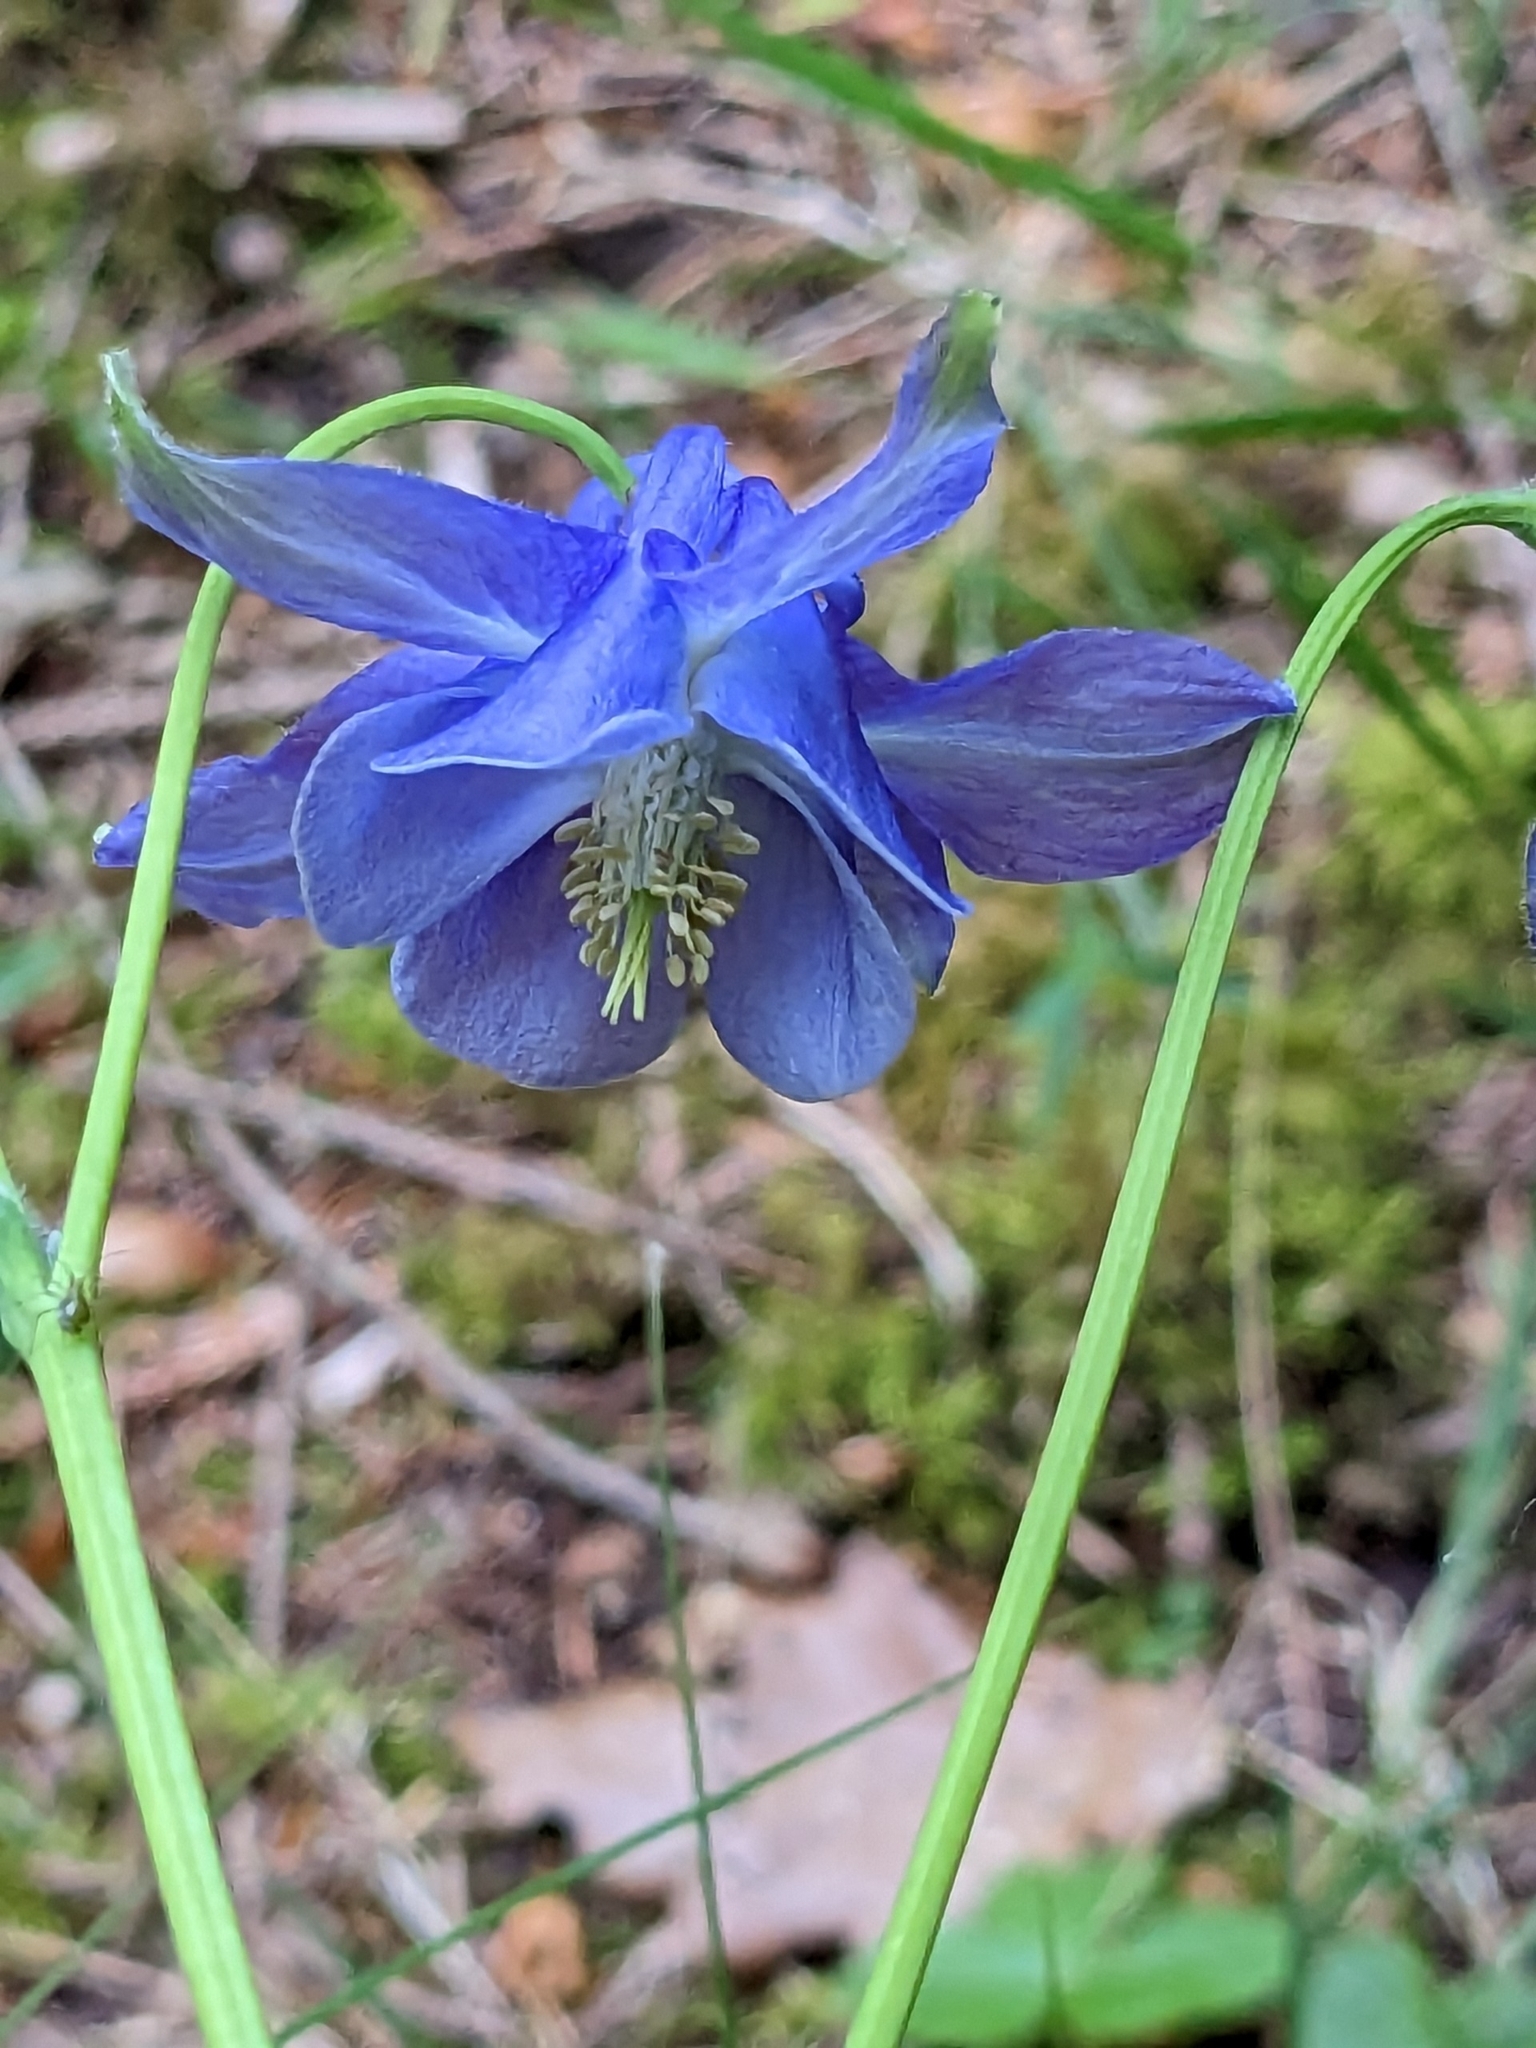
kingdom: Plantae
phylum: Tracheophyta
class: Magnoliopsida
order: Ranunculales
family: Ranunculaceae
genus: Aquilegia
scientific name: Aquilegia vulgaris
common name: Columbine
